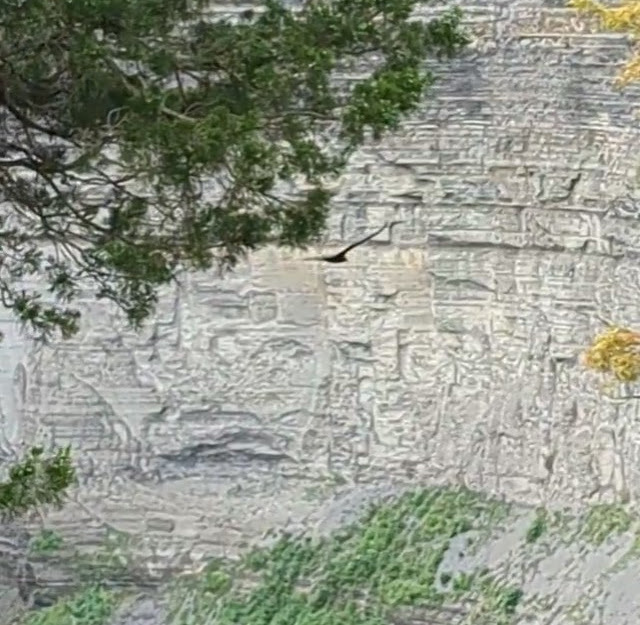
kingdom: Animalia
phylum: Chordata
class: Aves
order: Accipitriformes
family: Cathartidae
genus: Cathartes
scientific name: Cathartes aura
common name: Turkey vulture
